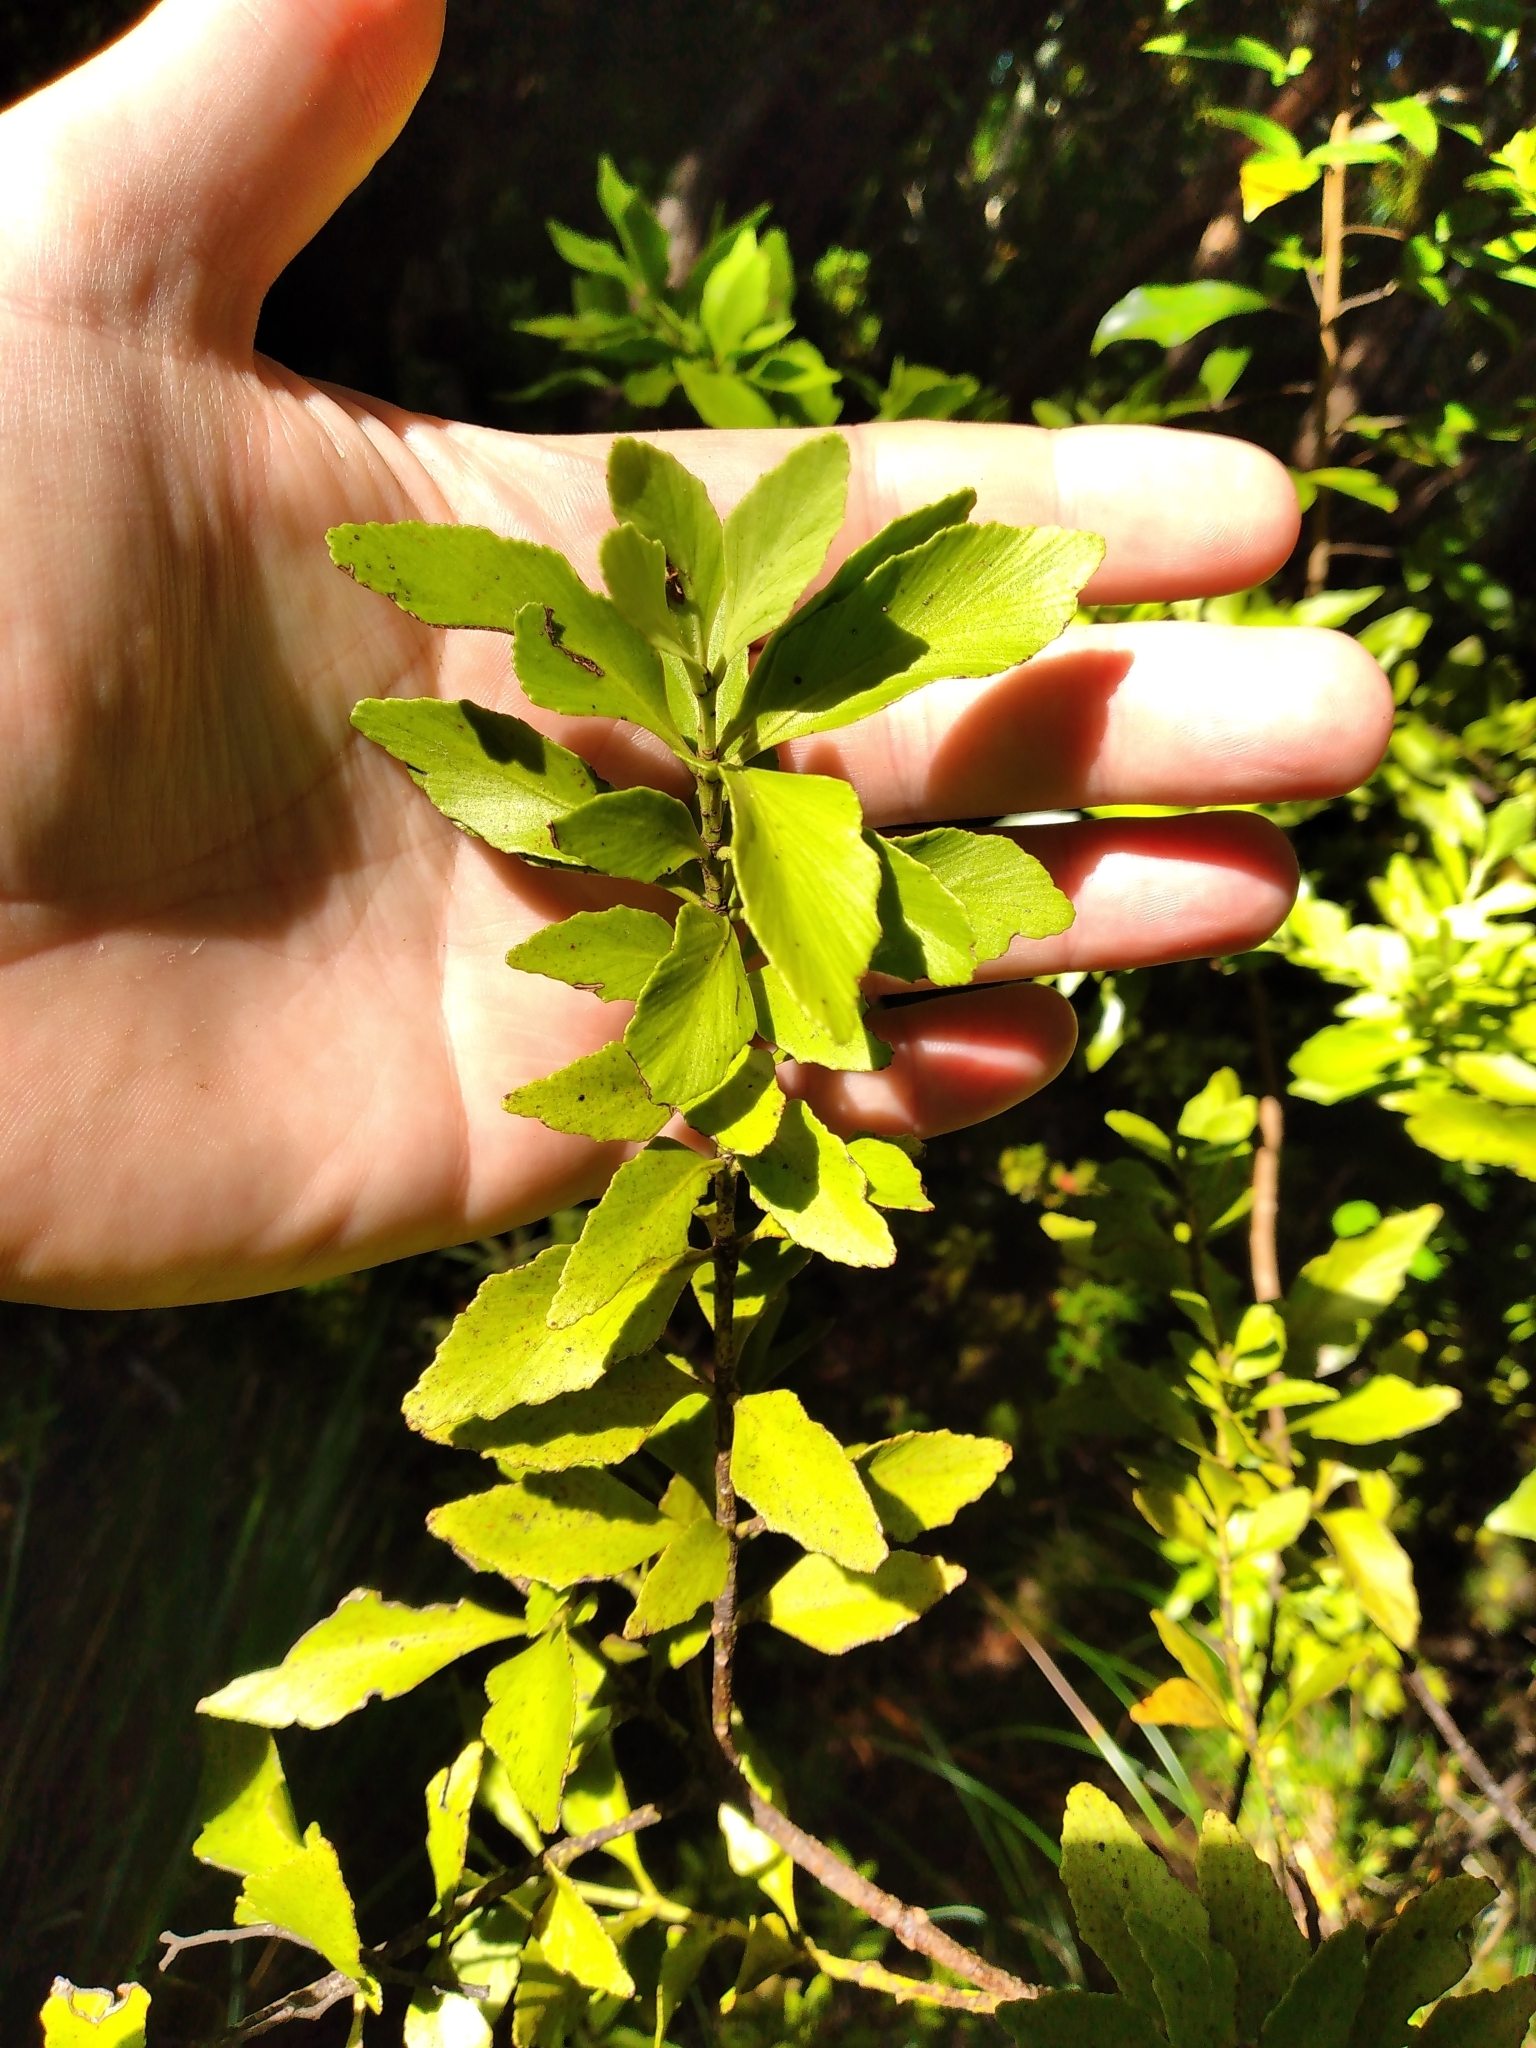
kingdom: Plantae
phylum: Tracheophyta
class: Pinopsida
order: Pinales
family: Phyllocladaceae
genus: Phyllocladus
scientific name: Phyllocladus trichomanoides
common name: Celery pine
